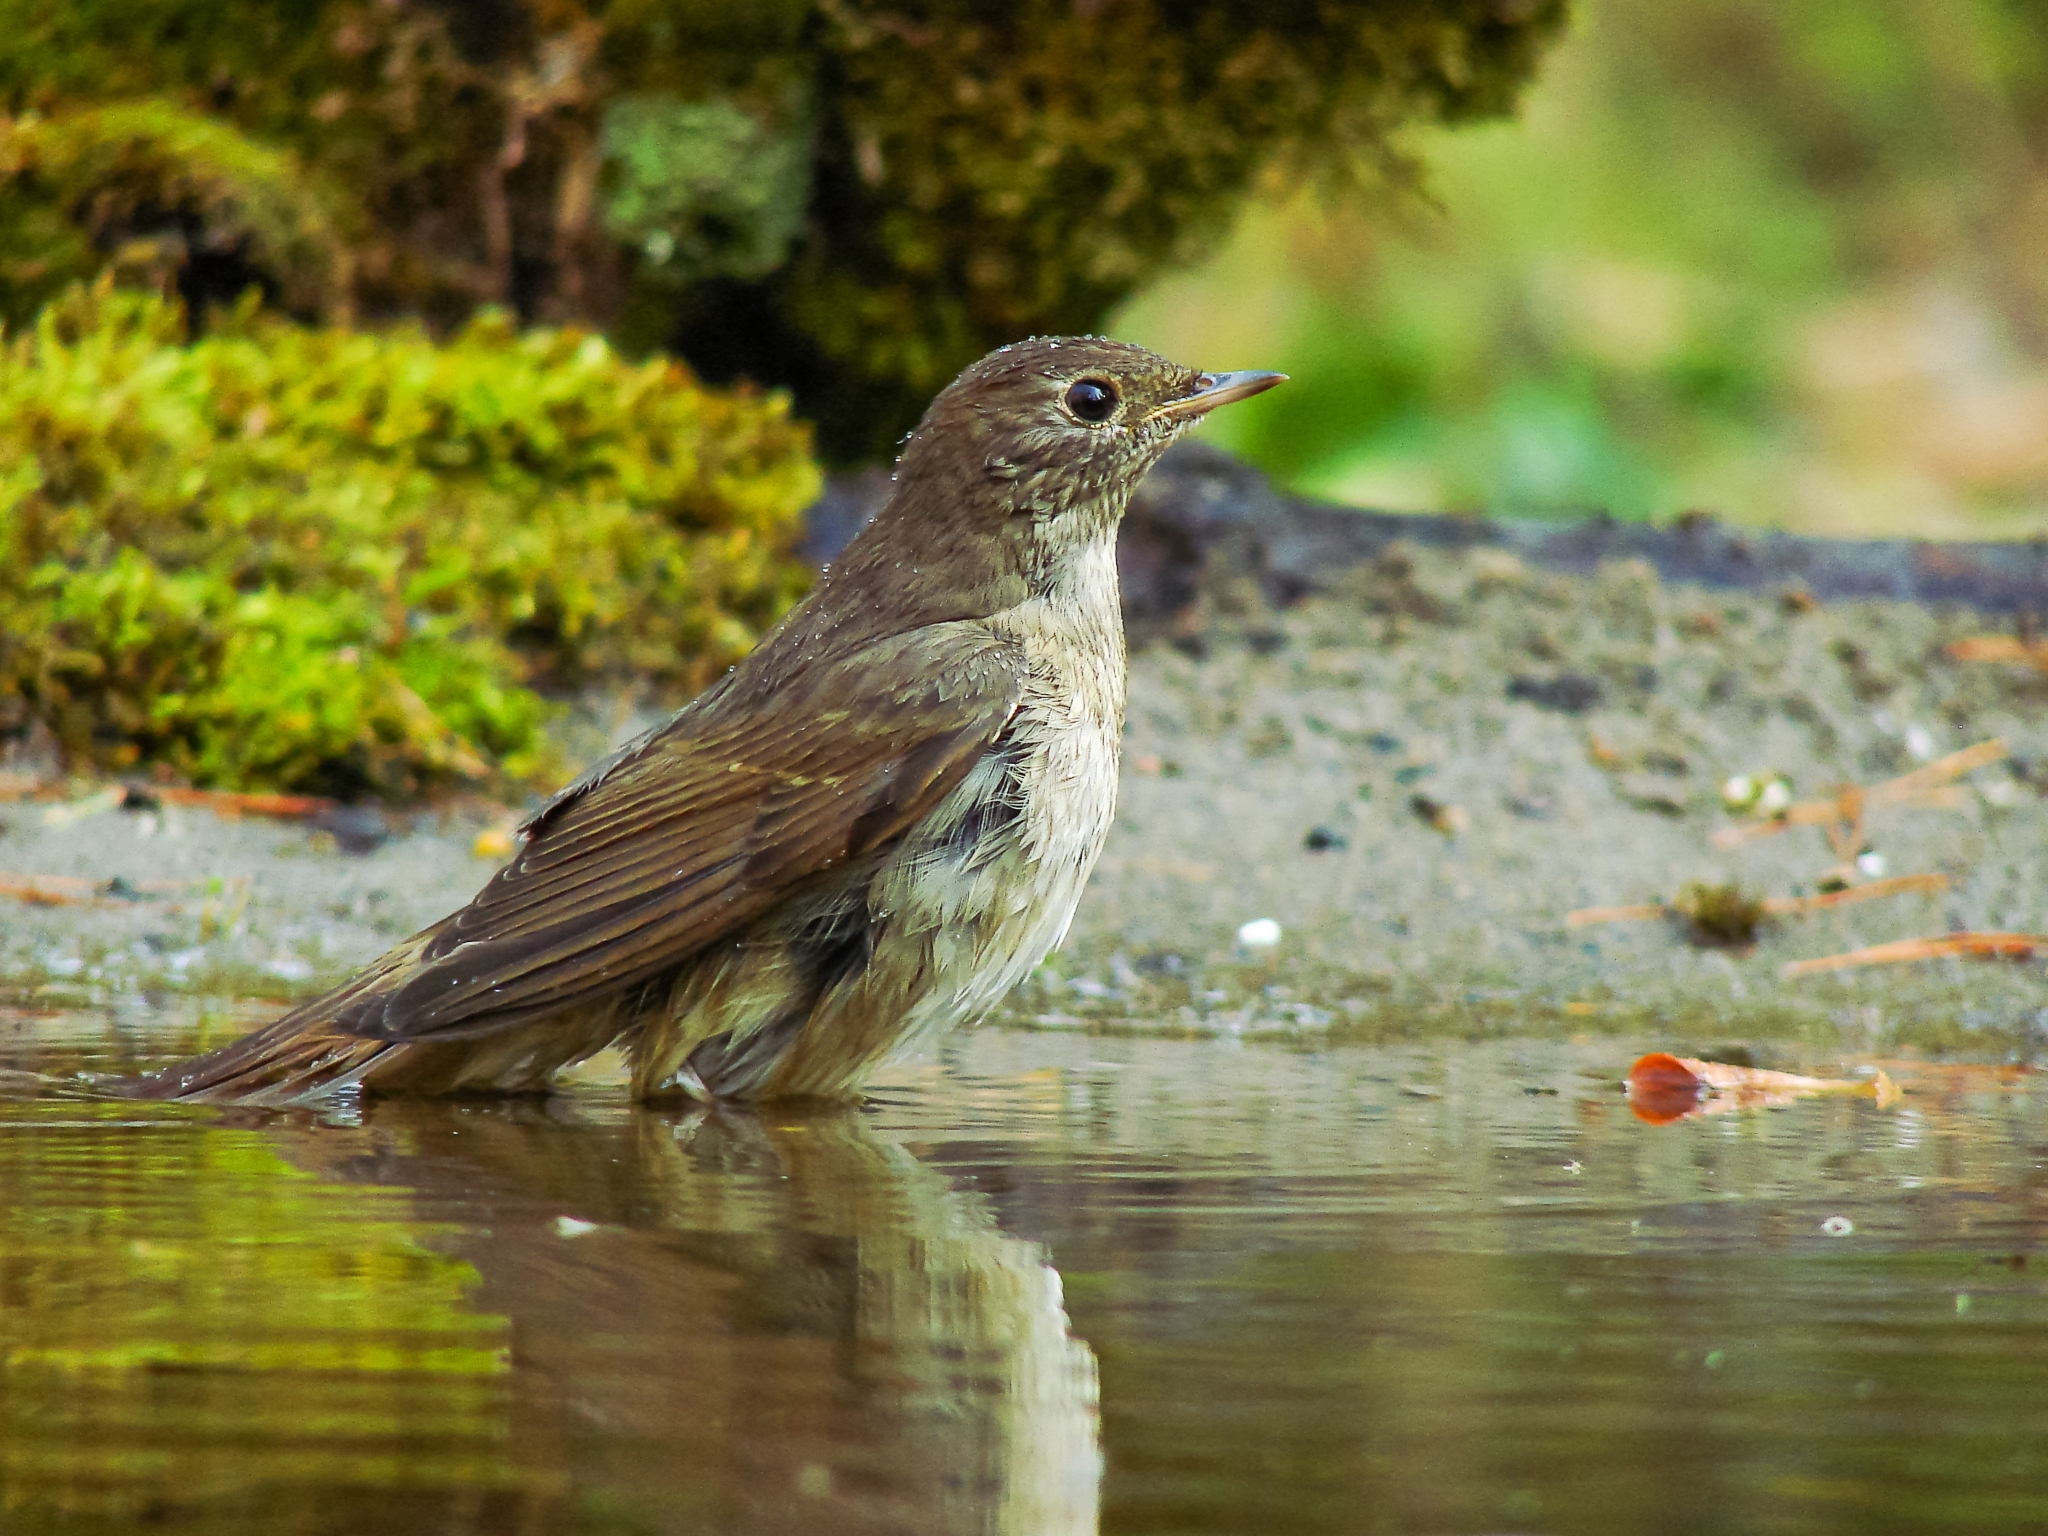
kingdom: Animalia
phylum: Chordata
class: Aves
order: Passeriformes
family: Muscicapidae
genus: Luscinia
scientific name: Luscinia luscinia
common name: Thrush nightingale
